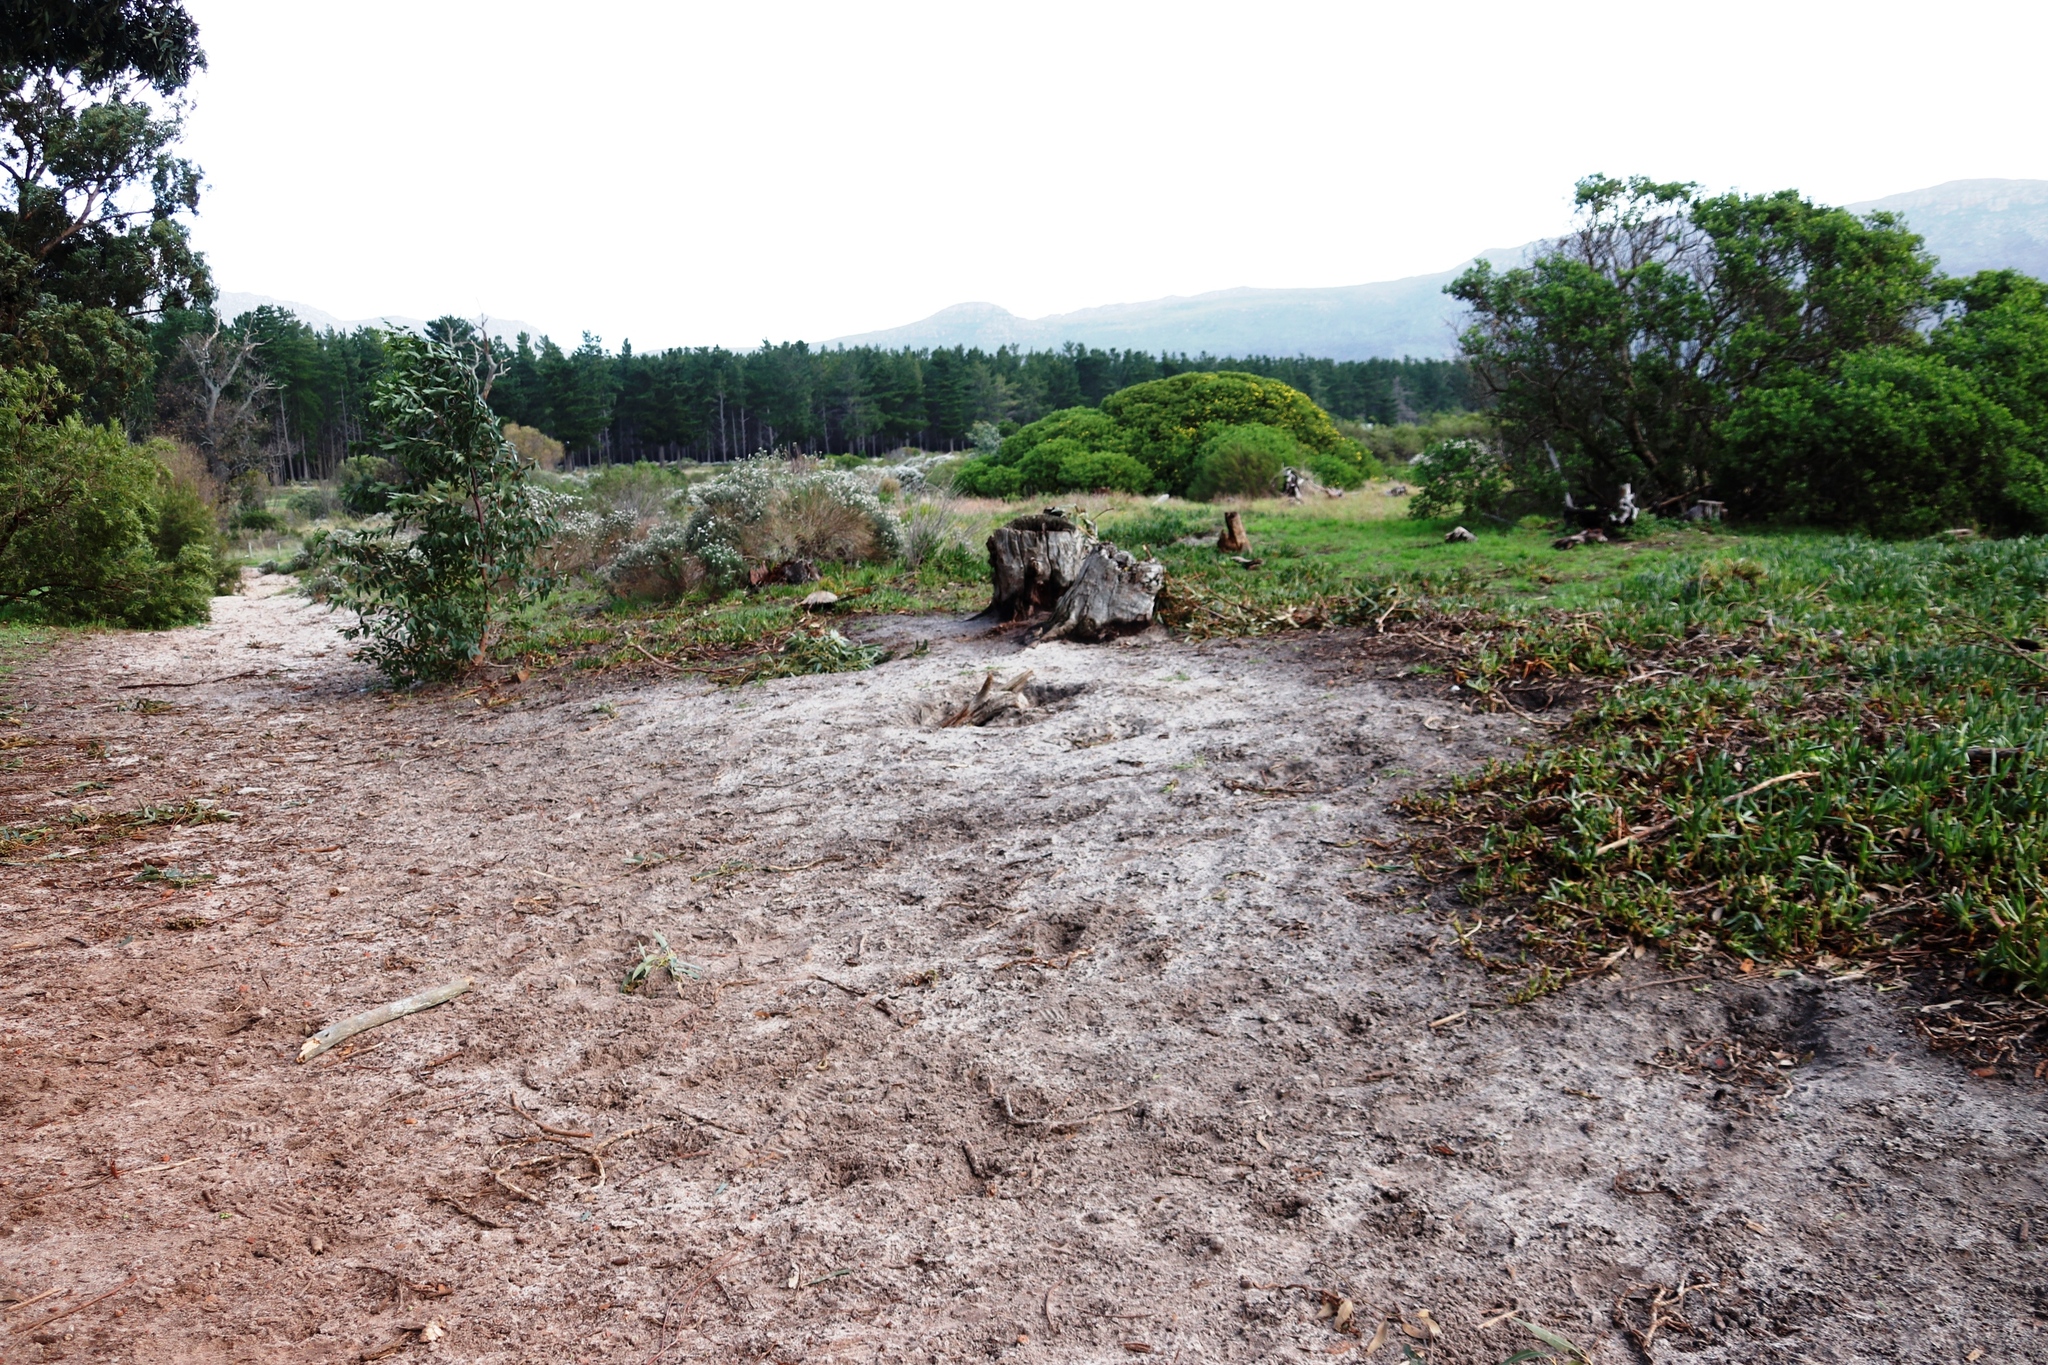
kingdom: Plantae
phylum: Tracheophyta
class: Magnoliopsida
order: Caryophyllales
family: Aizoaceae
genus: Carpobrotus
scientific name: Carpobrotus edulis
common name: Hottentot-fig
